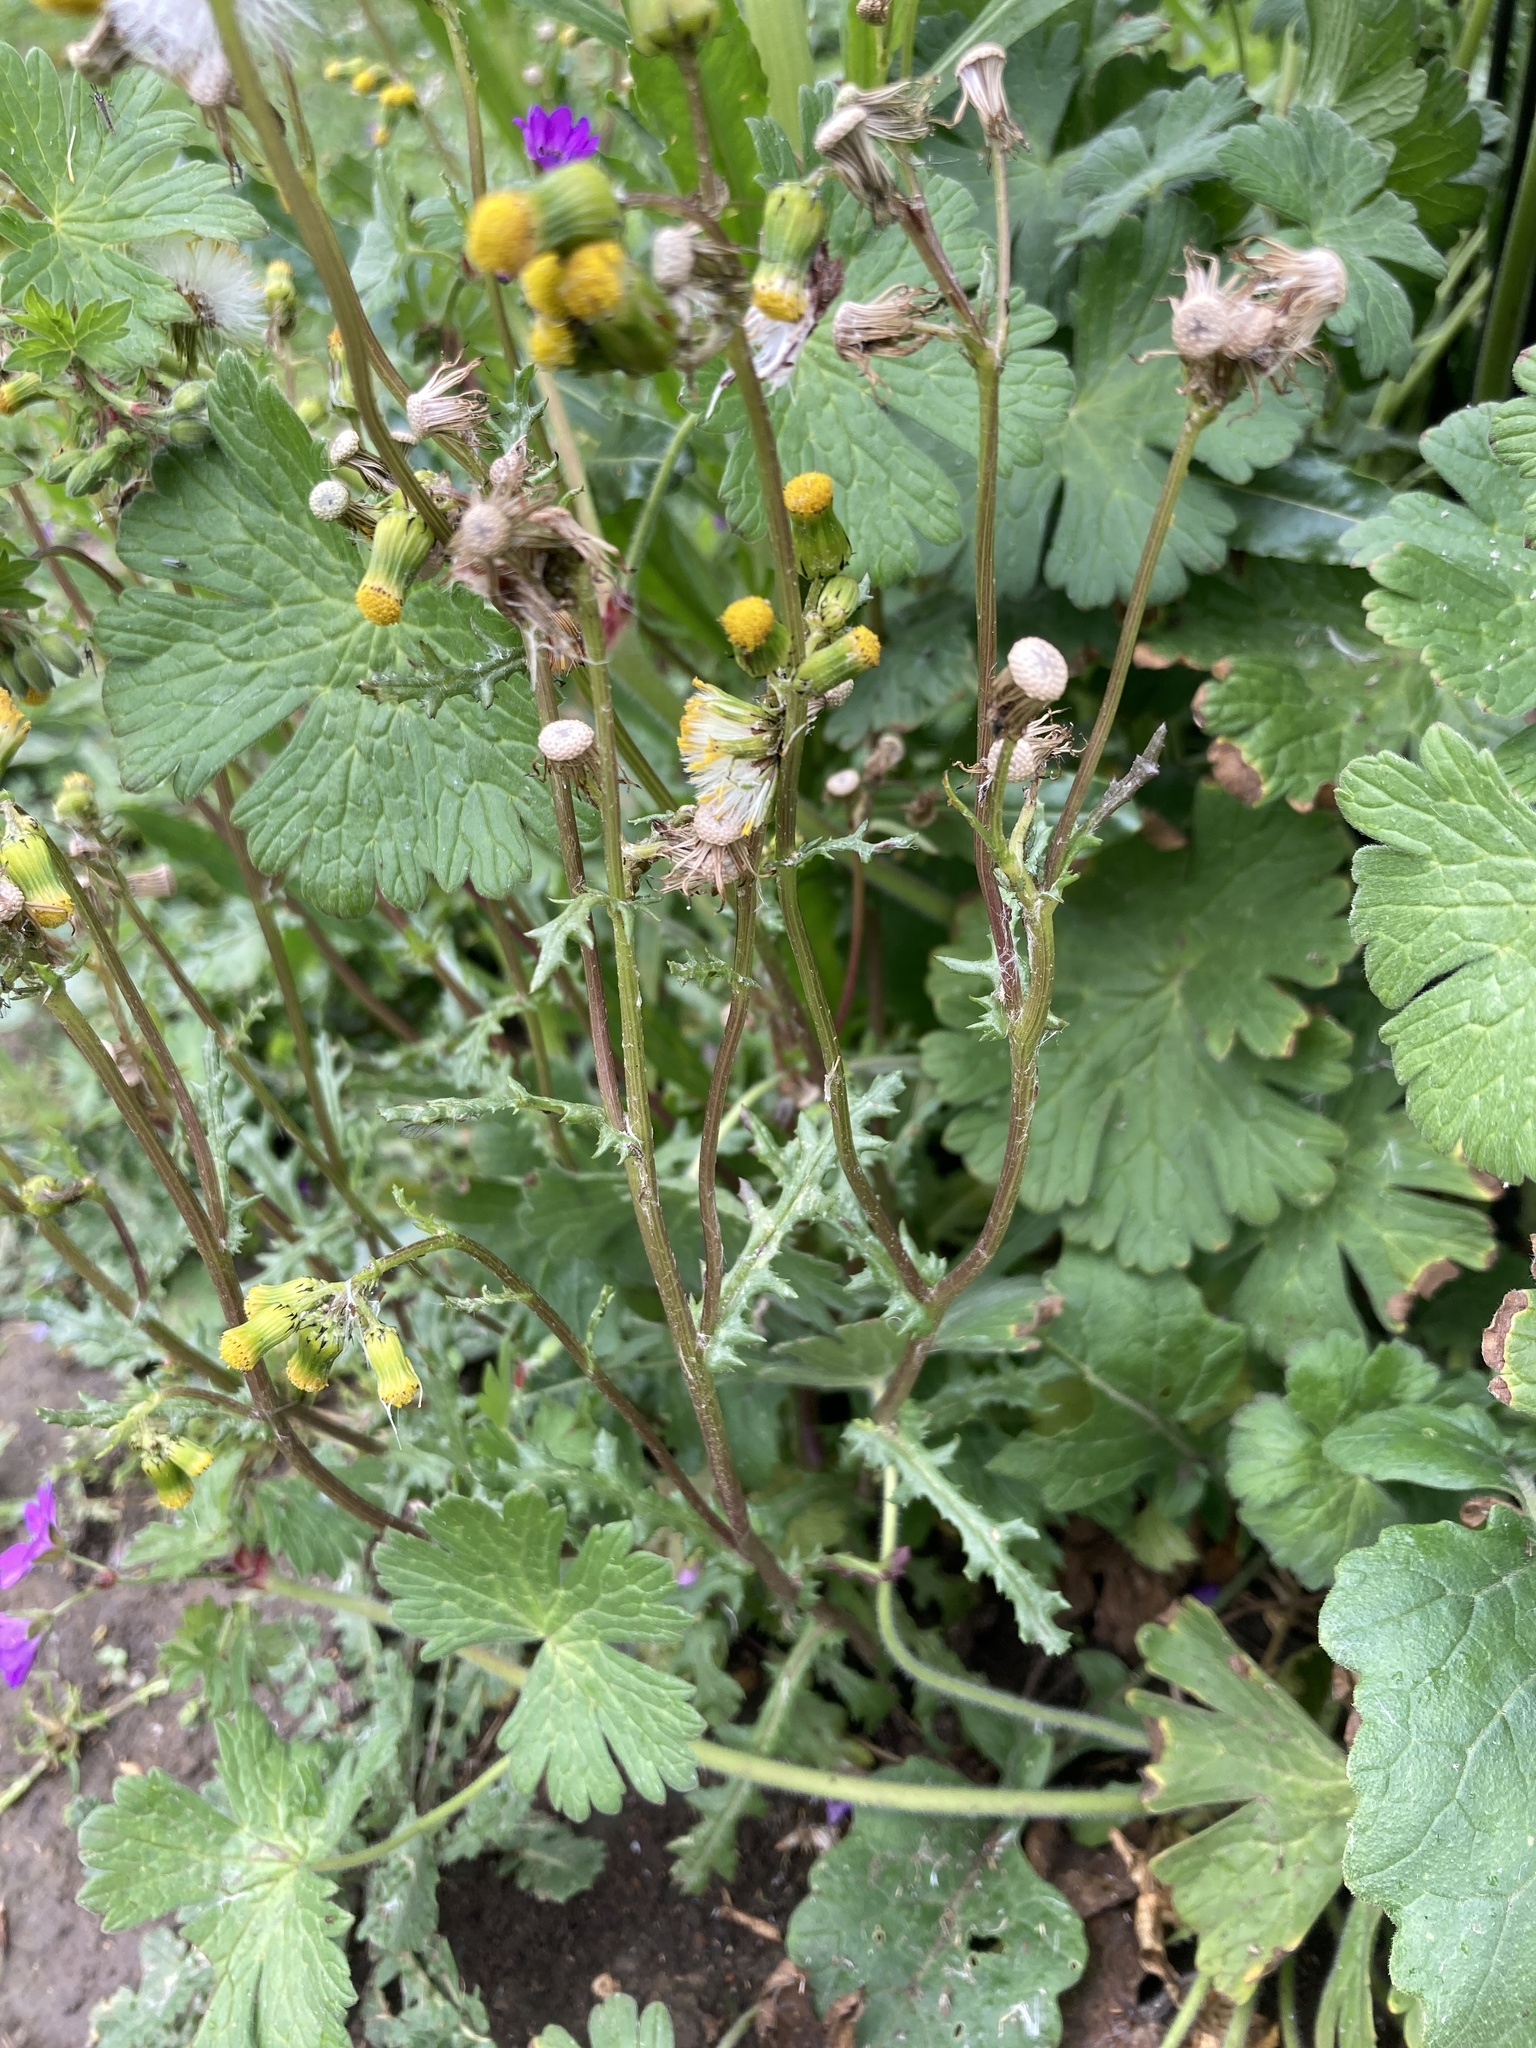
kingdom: Plantae
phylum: Tracheophyta
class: Magnoliopsida
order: Asterales
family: Asteraceae
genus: Senecio
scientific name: Senecio vulgaris
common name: Old-man-in-the-spring
